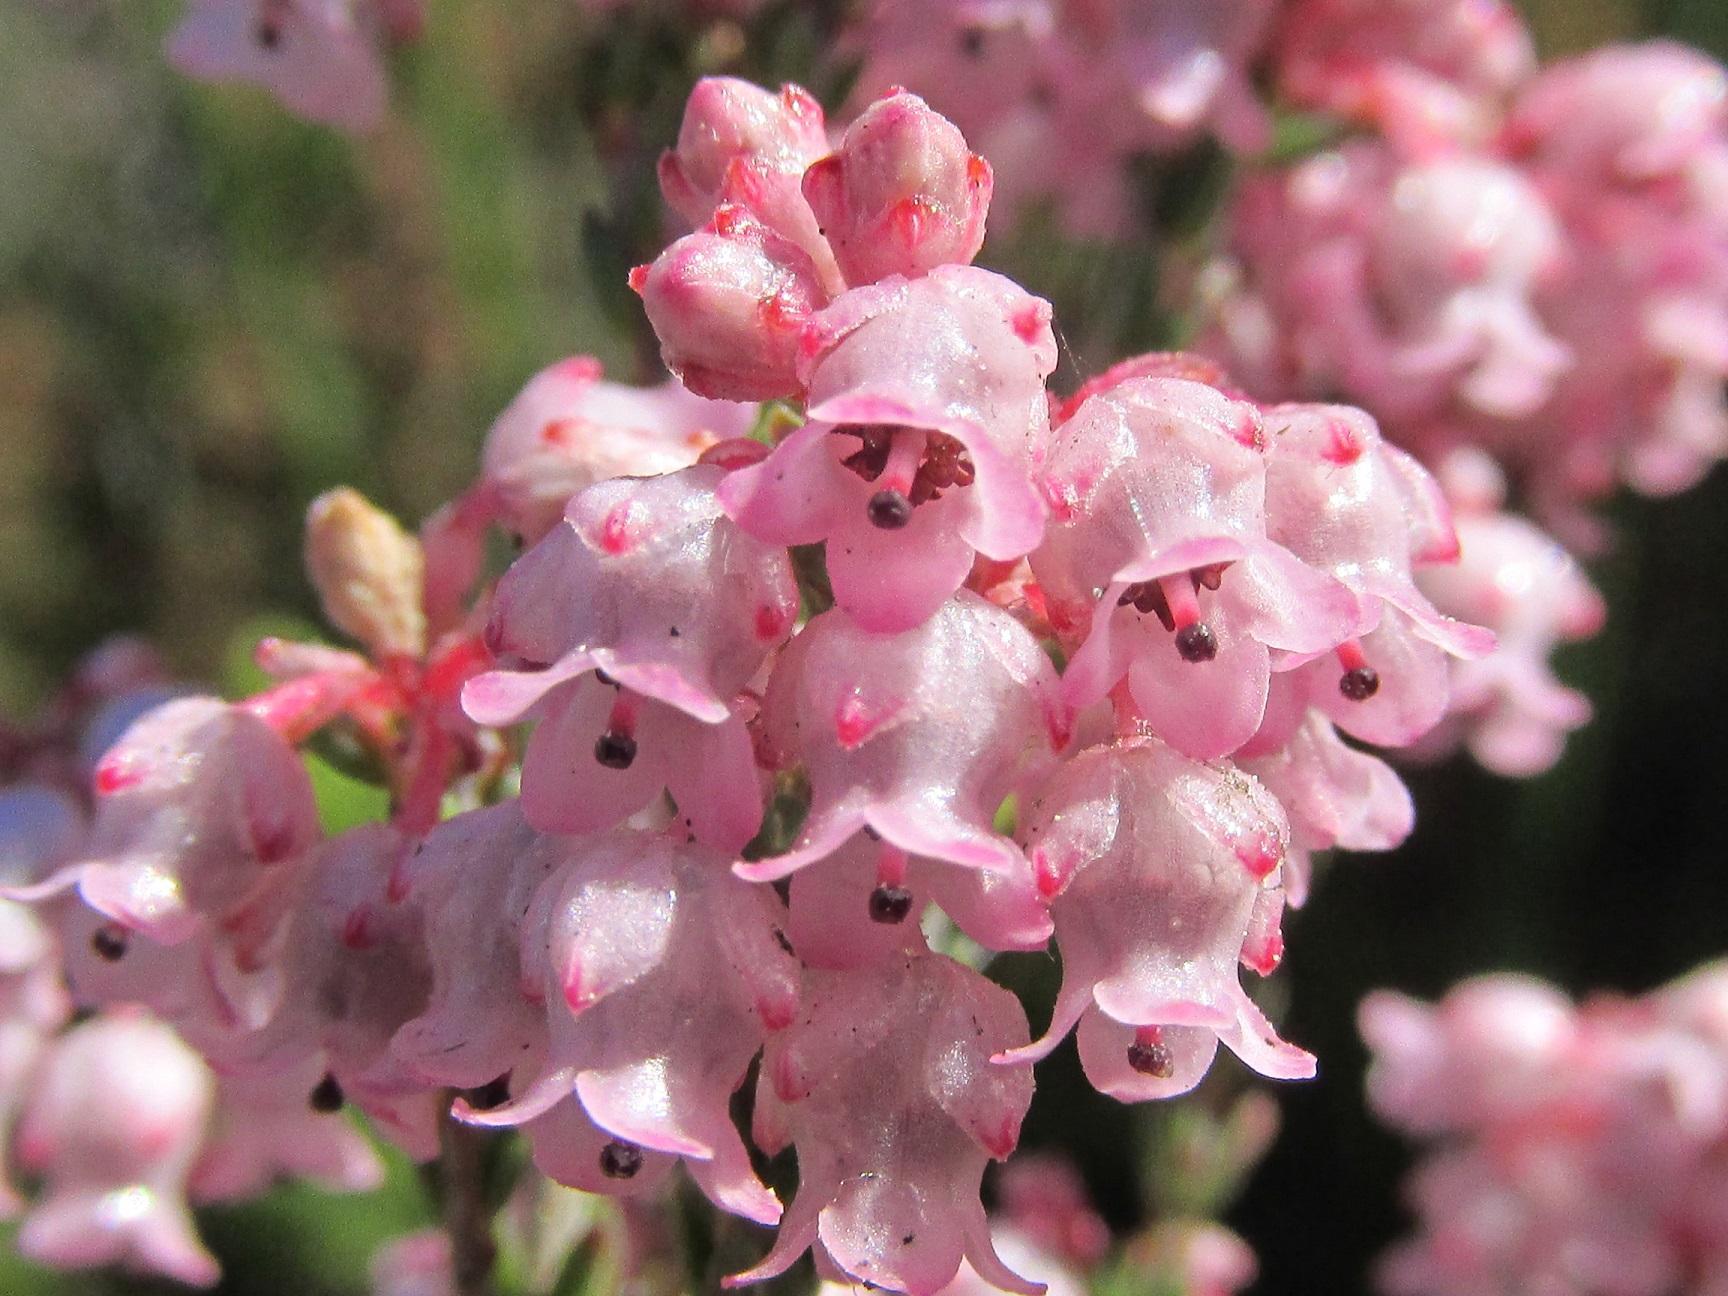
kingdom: Plantae
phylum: Tracheophyta
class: Magnoliopsida
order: Ericales
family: Ericaceae
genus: Erica
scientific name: Erica brevifolia
